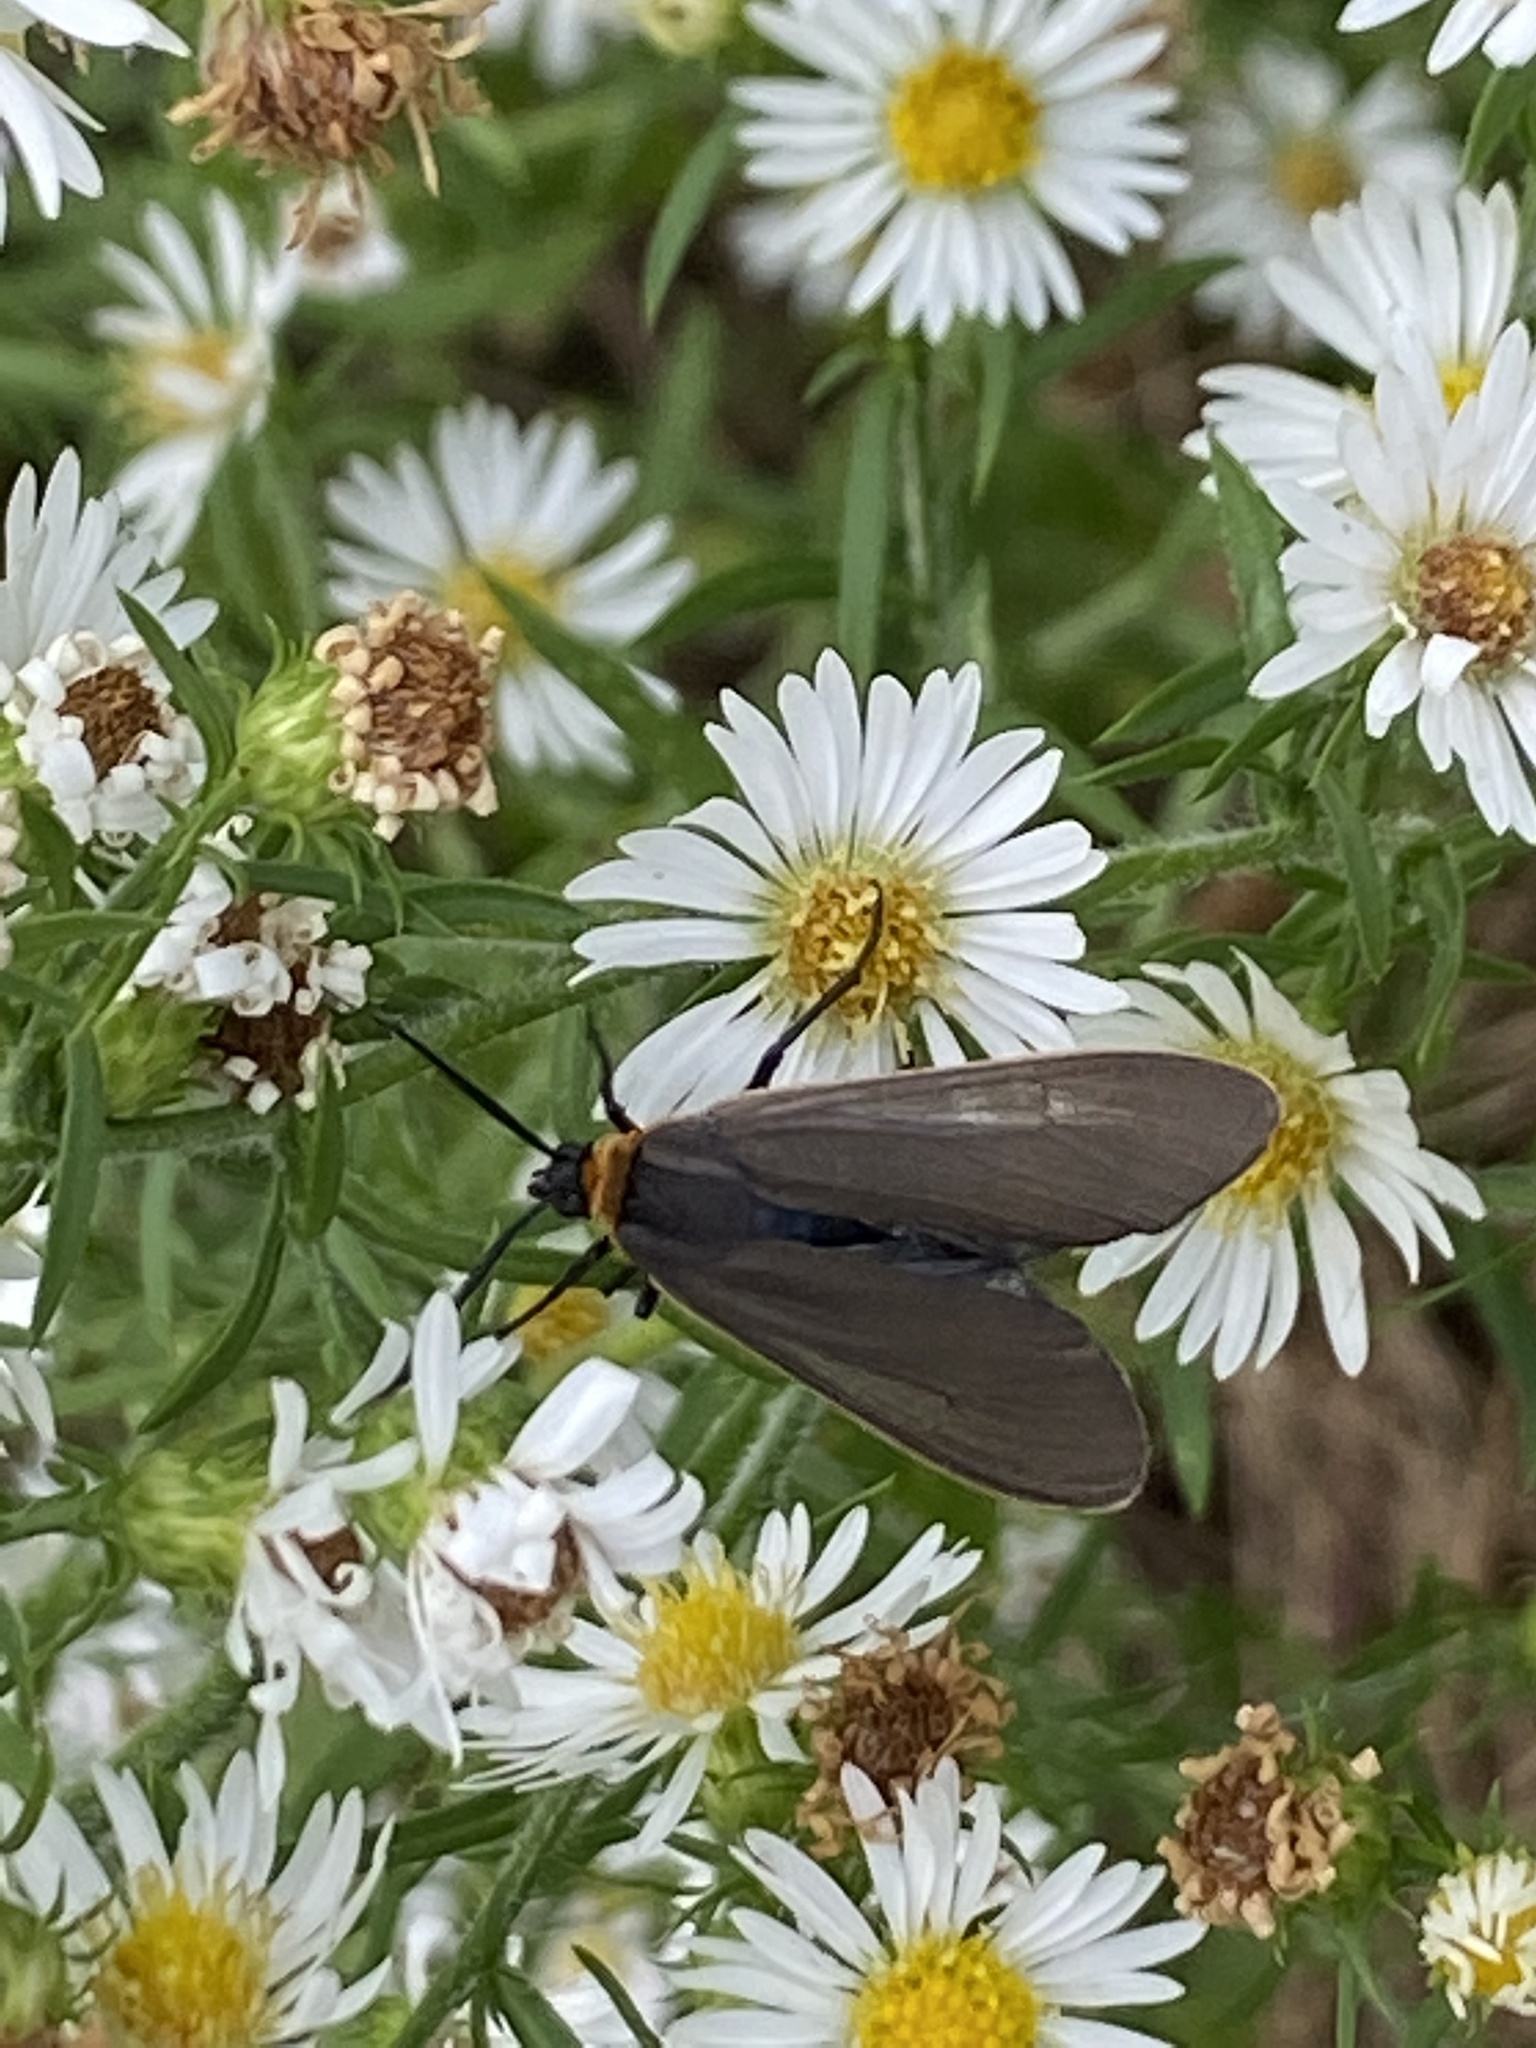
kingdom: Animalia
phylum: Arthropoda
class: Insecta
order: Lepidoptera
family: Erebidae
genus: Cisseps
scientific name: Cisseps fulvicollis
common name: Yellow-collared scape moth
